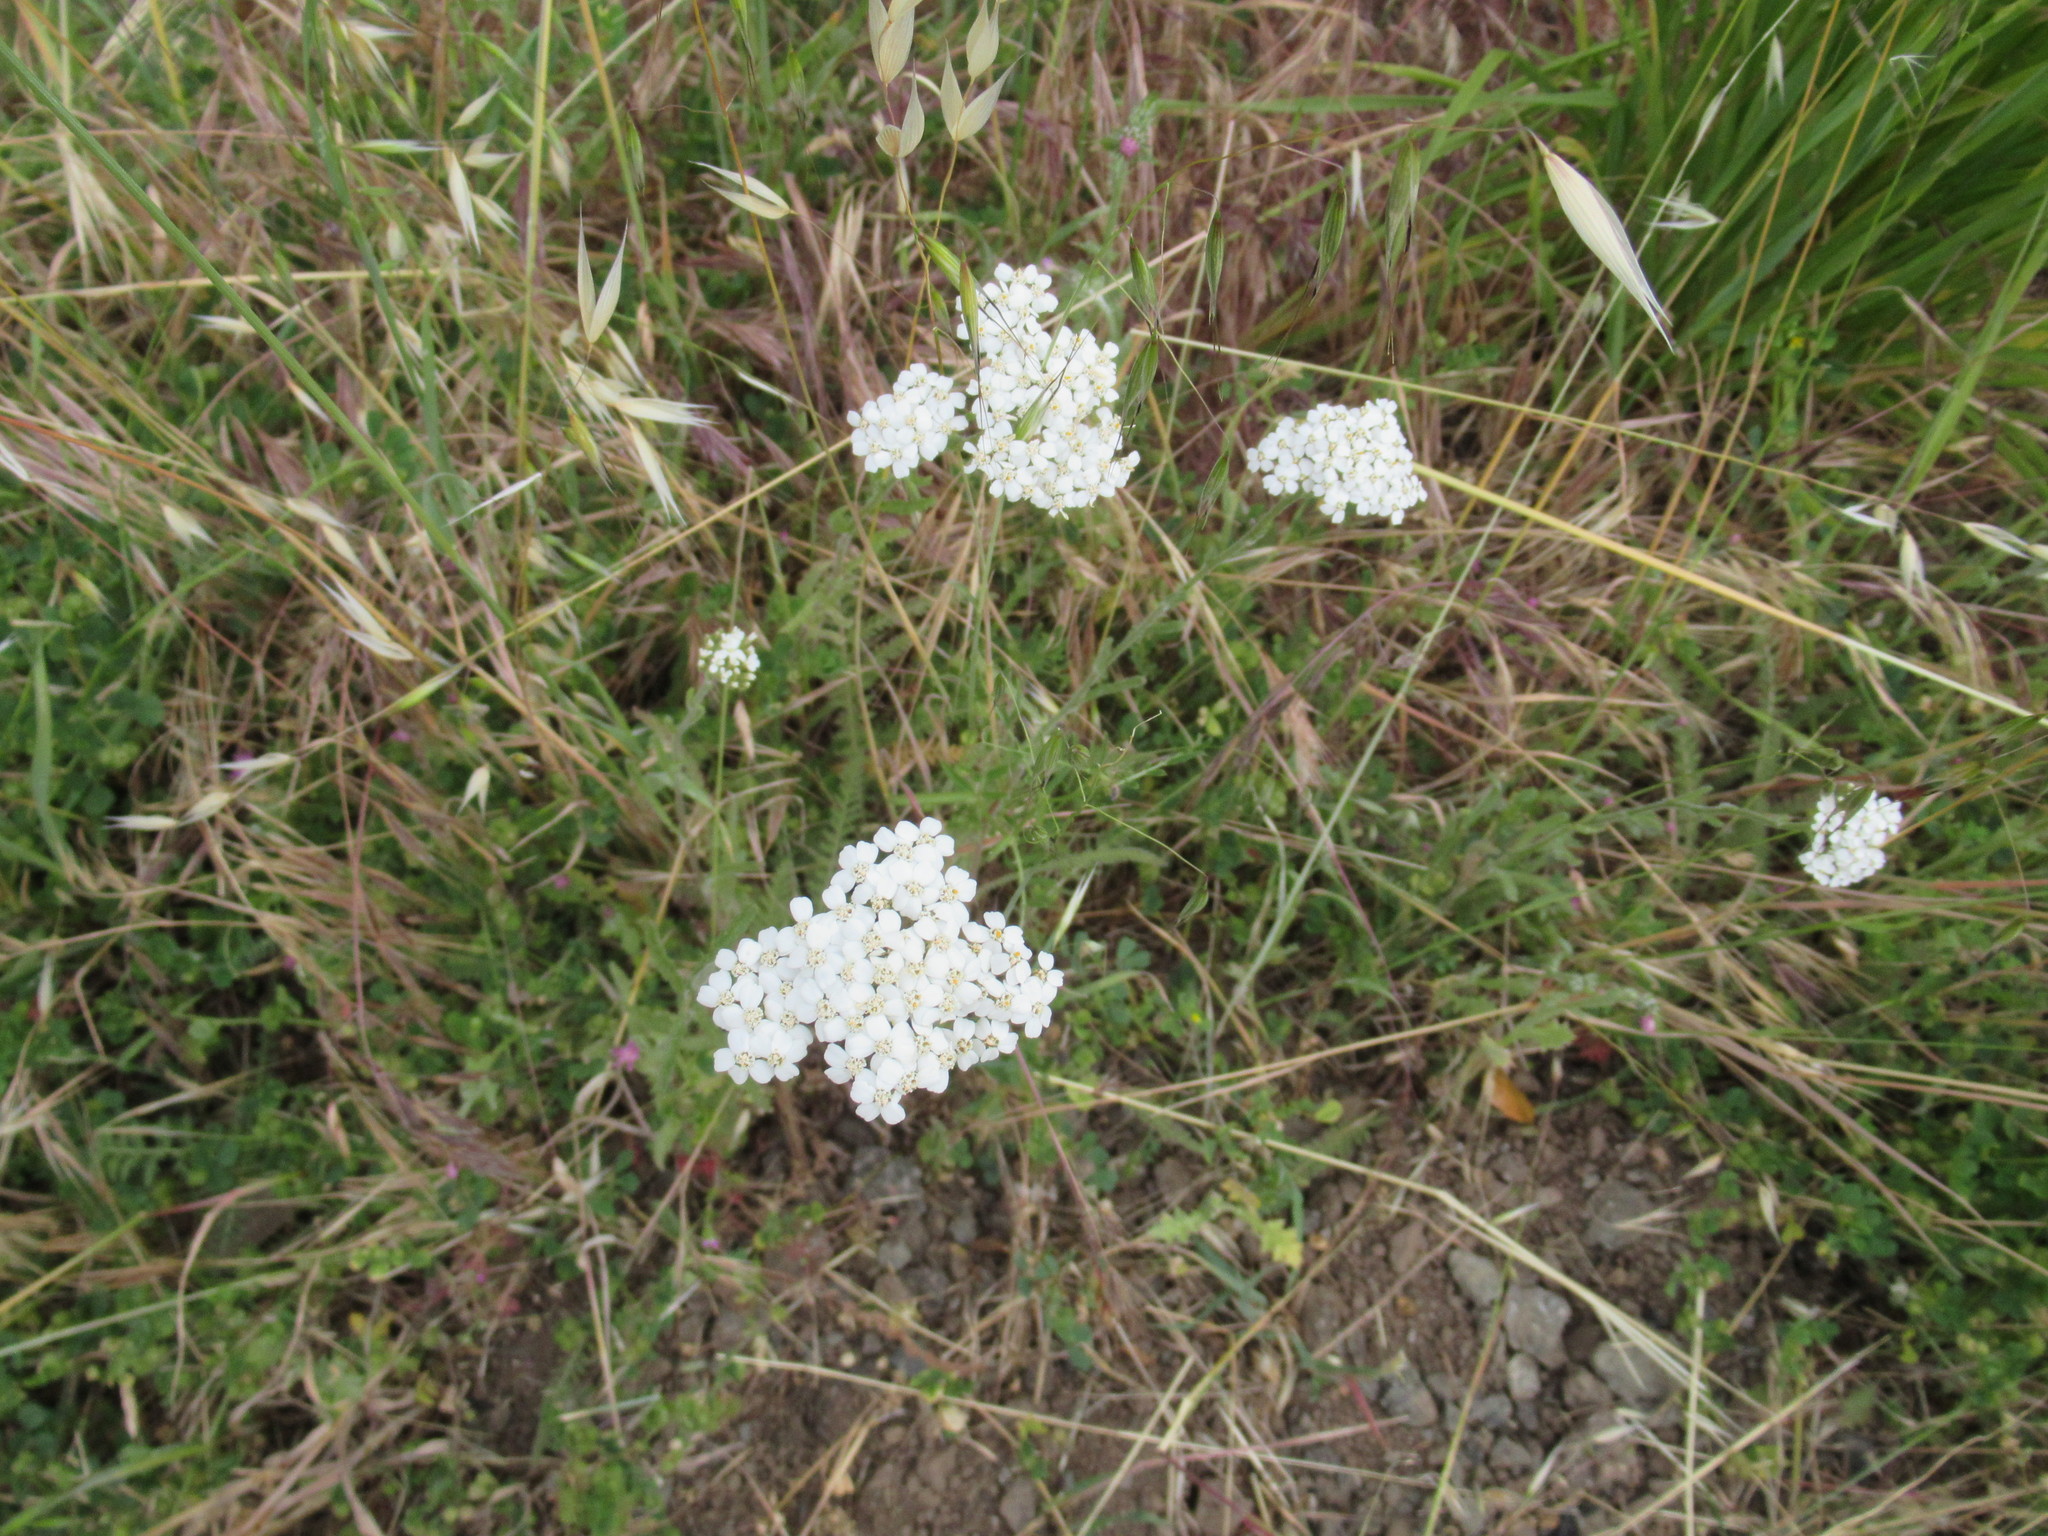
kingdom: Plantae
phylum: Tracheophyta
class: Magnoliopsida
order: Asterales
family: Asteraceae
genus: Achillea
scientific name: Achillea millefolium
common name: Yarrow
